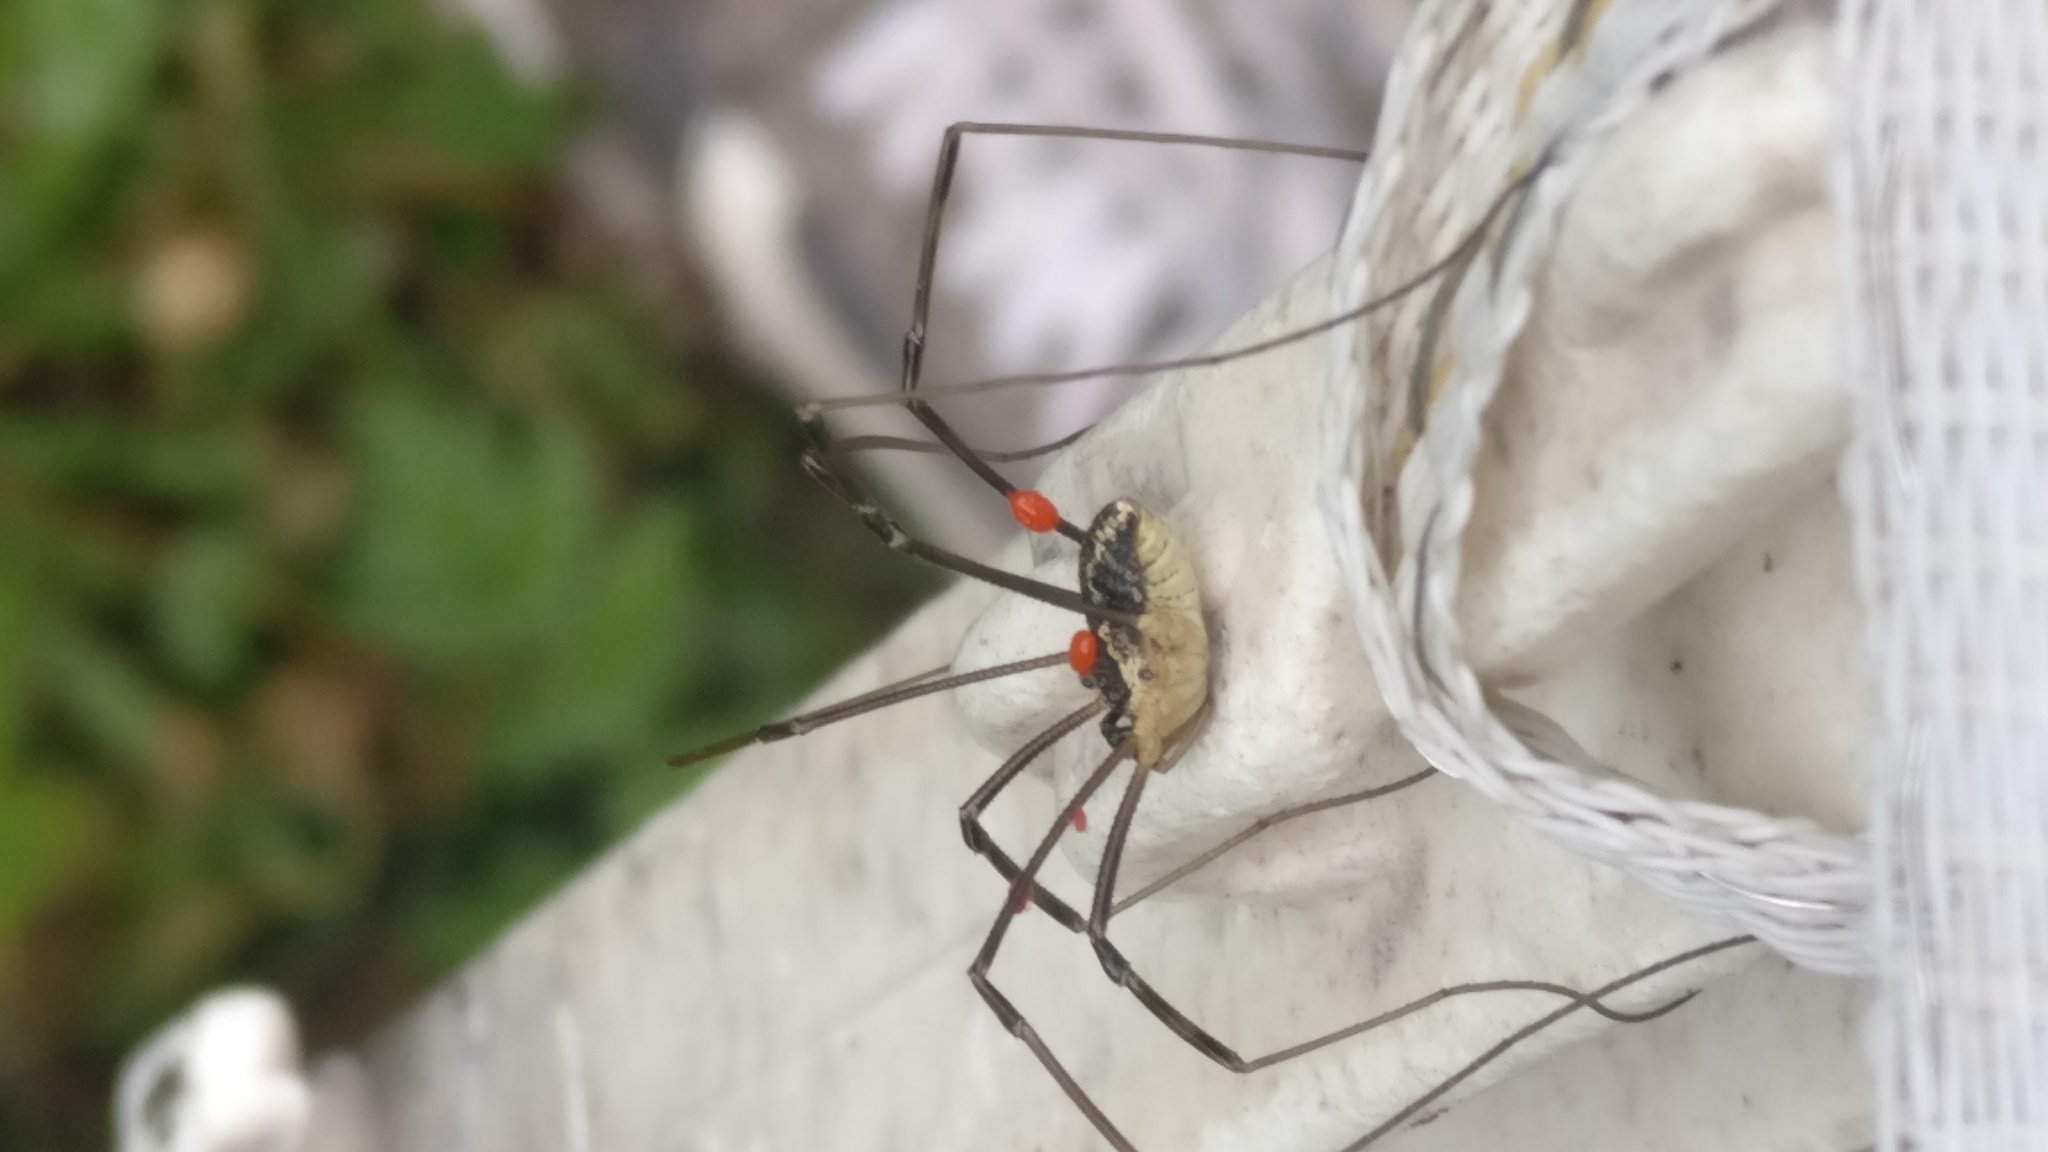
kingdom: Animalia
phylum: Arthropoda
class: Arachnida
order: Opiliones
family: Phalangiidae
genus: Mitopus
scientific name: Mitopus morio
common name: Saddleback harvestman
